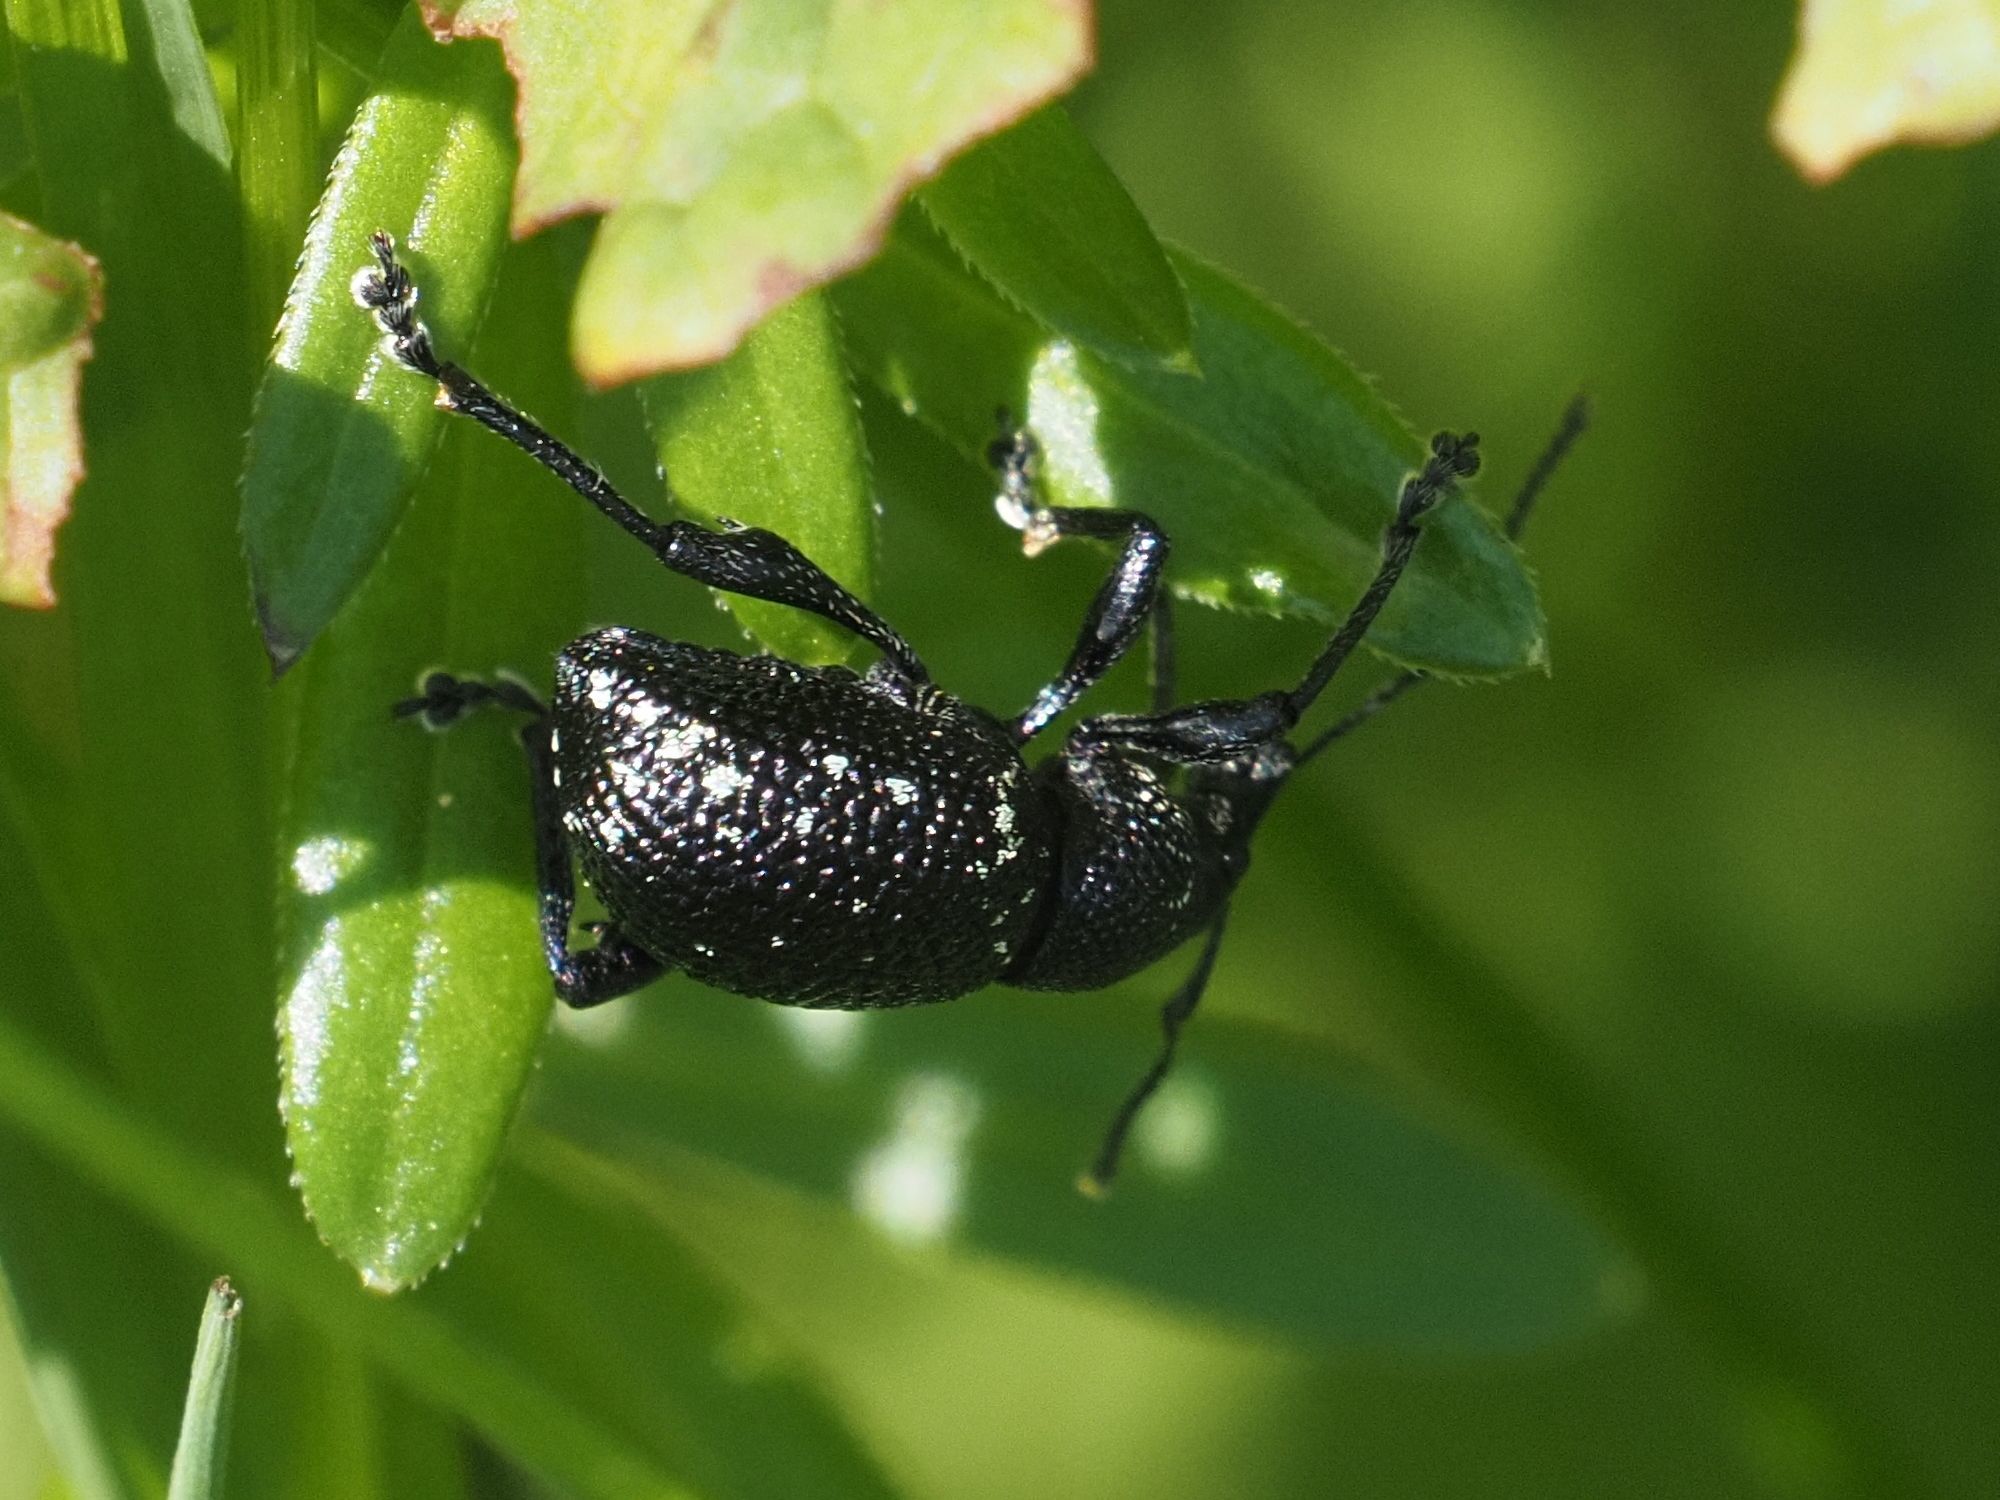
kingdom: Animalia
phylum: Arthropoda
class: Insecta
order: Coleoptera
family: Curculionidae
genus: Otiorhynchus
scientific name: Otiorhynchus gemmatus
